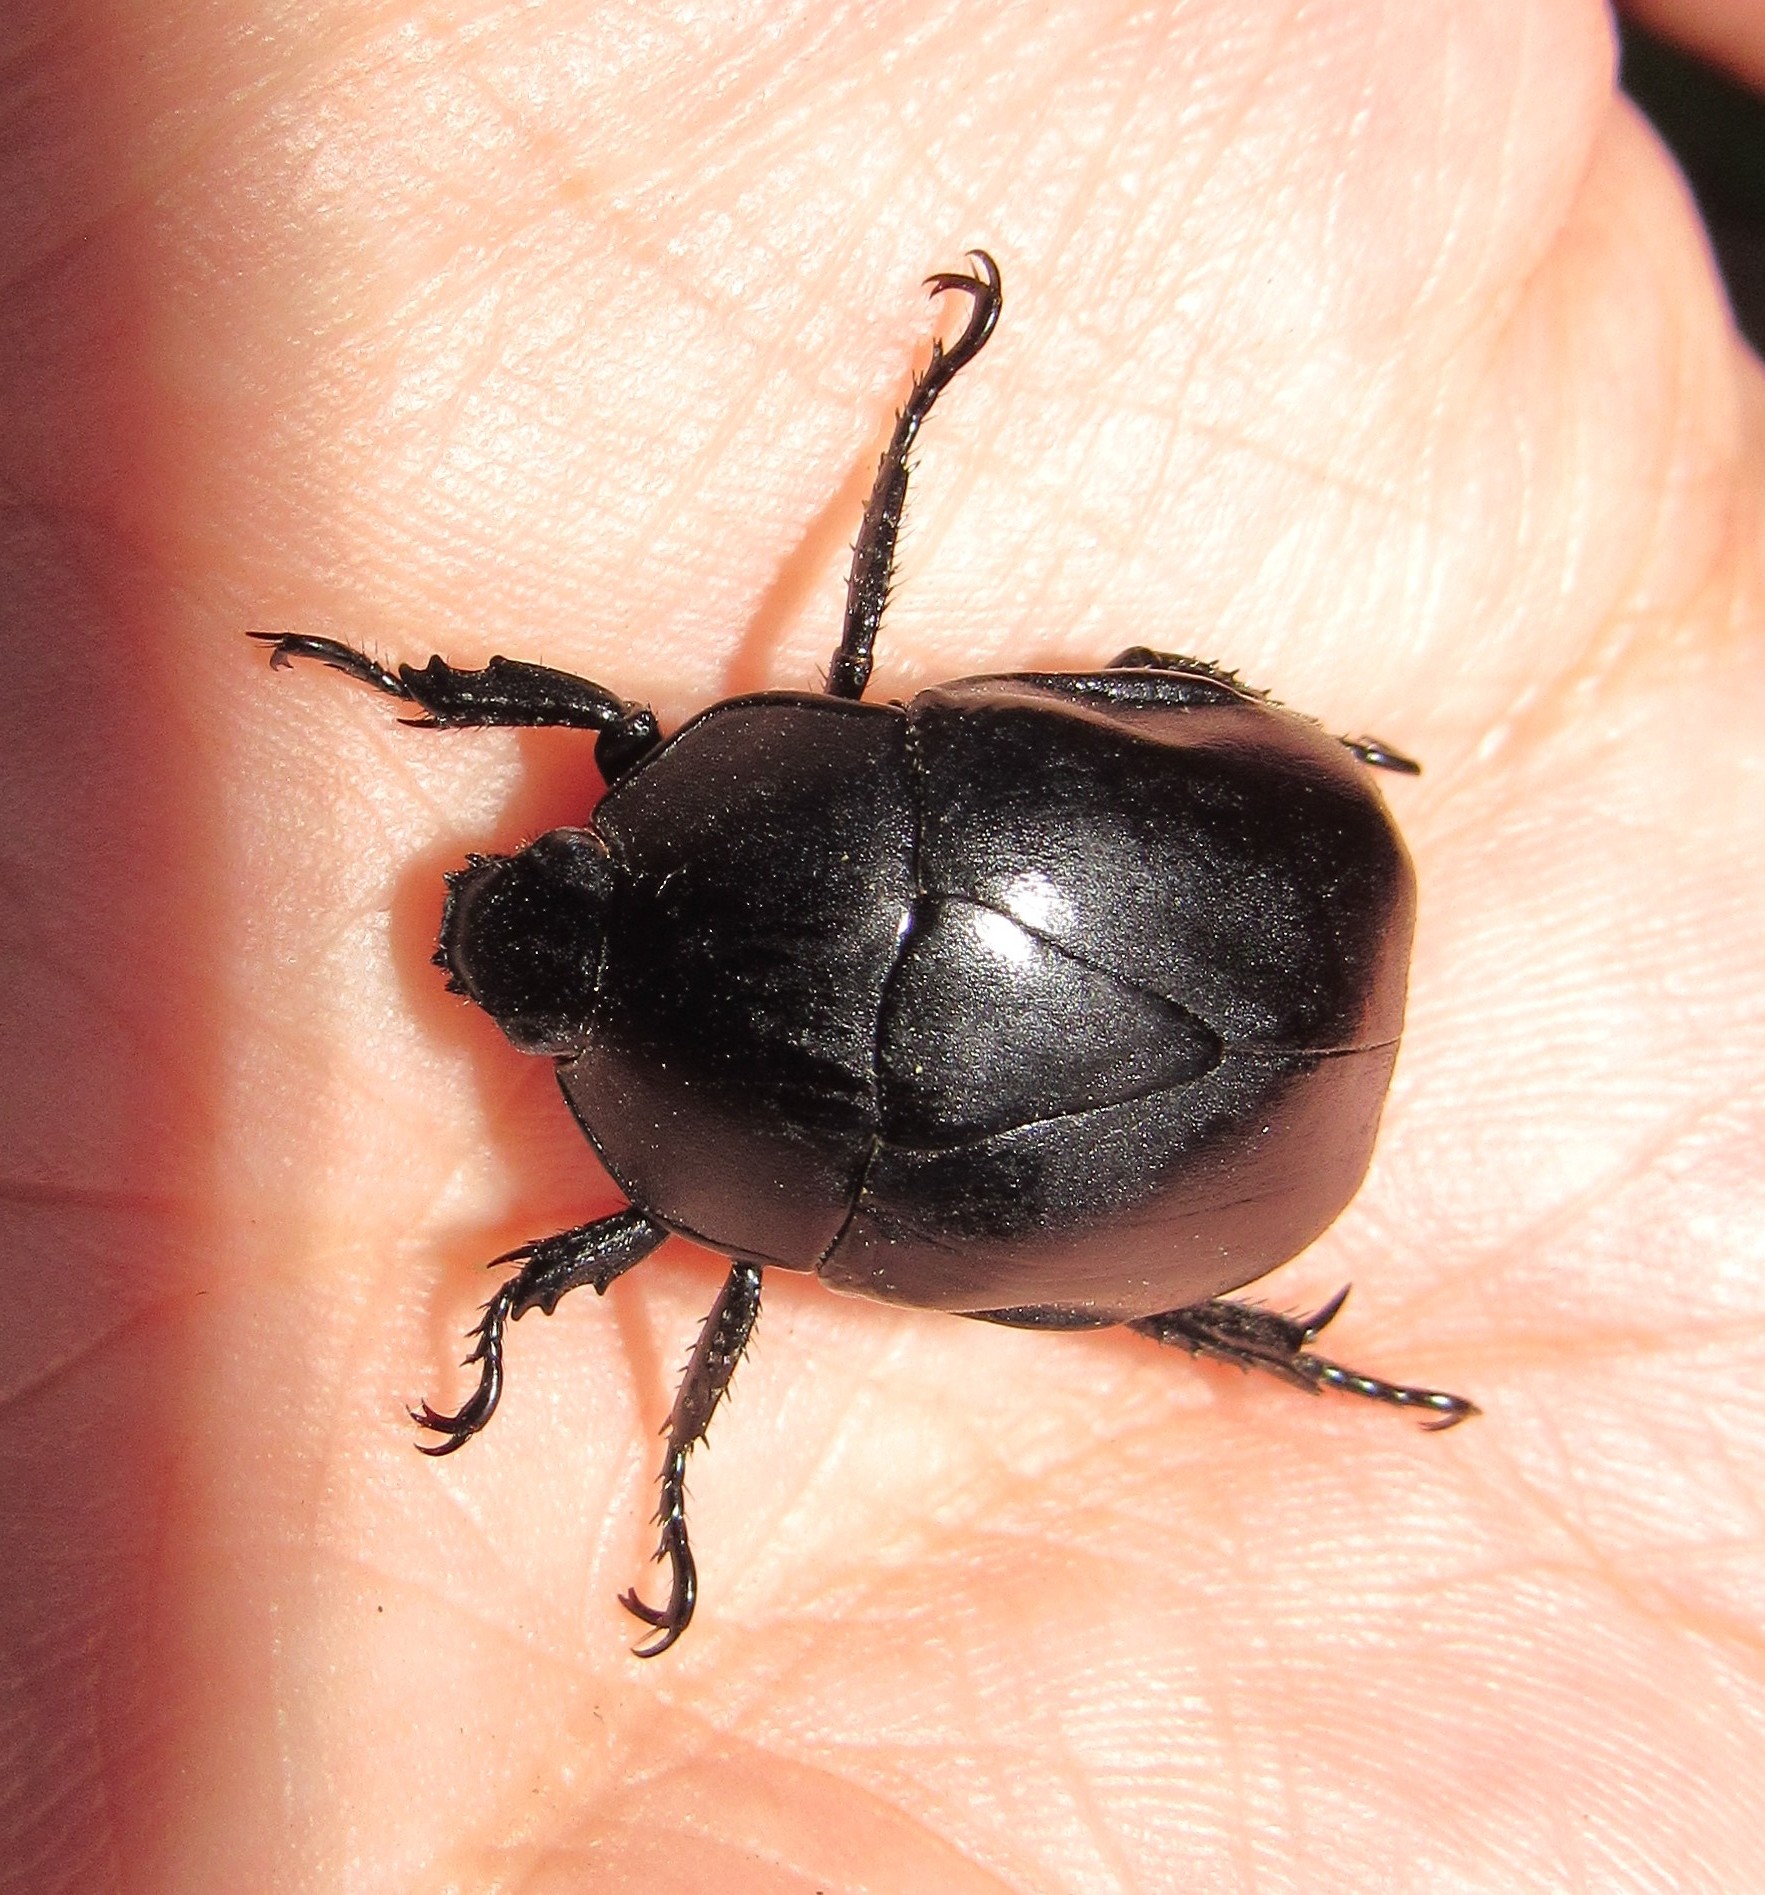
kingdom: Animalia
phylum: Arthropoda
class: Insecta
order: Coleoptera
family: Scarabaeidae
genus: Macraspis
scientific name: Macraspis morio
